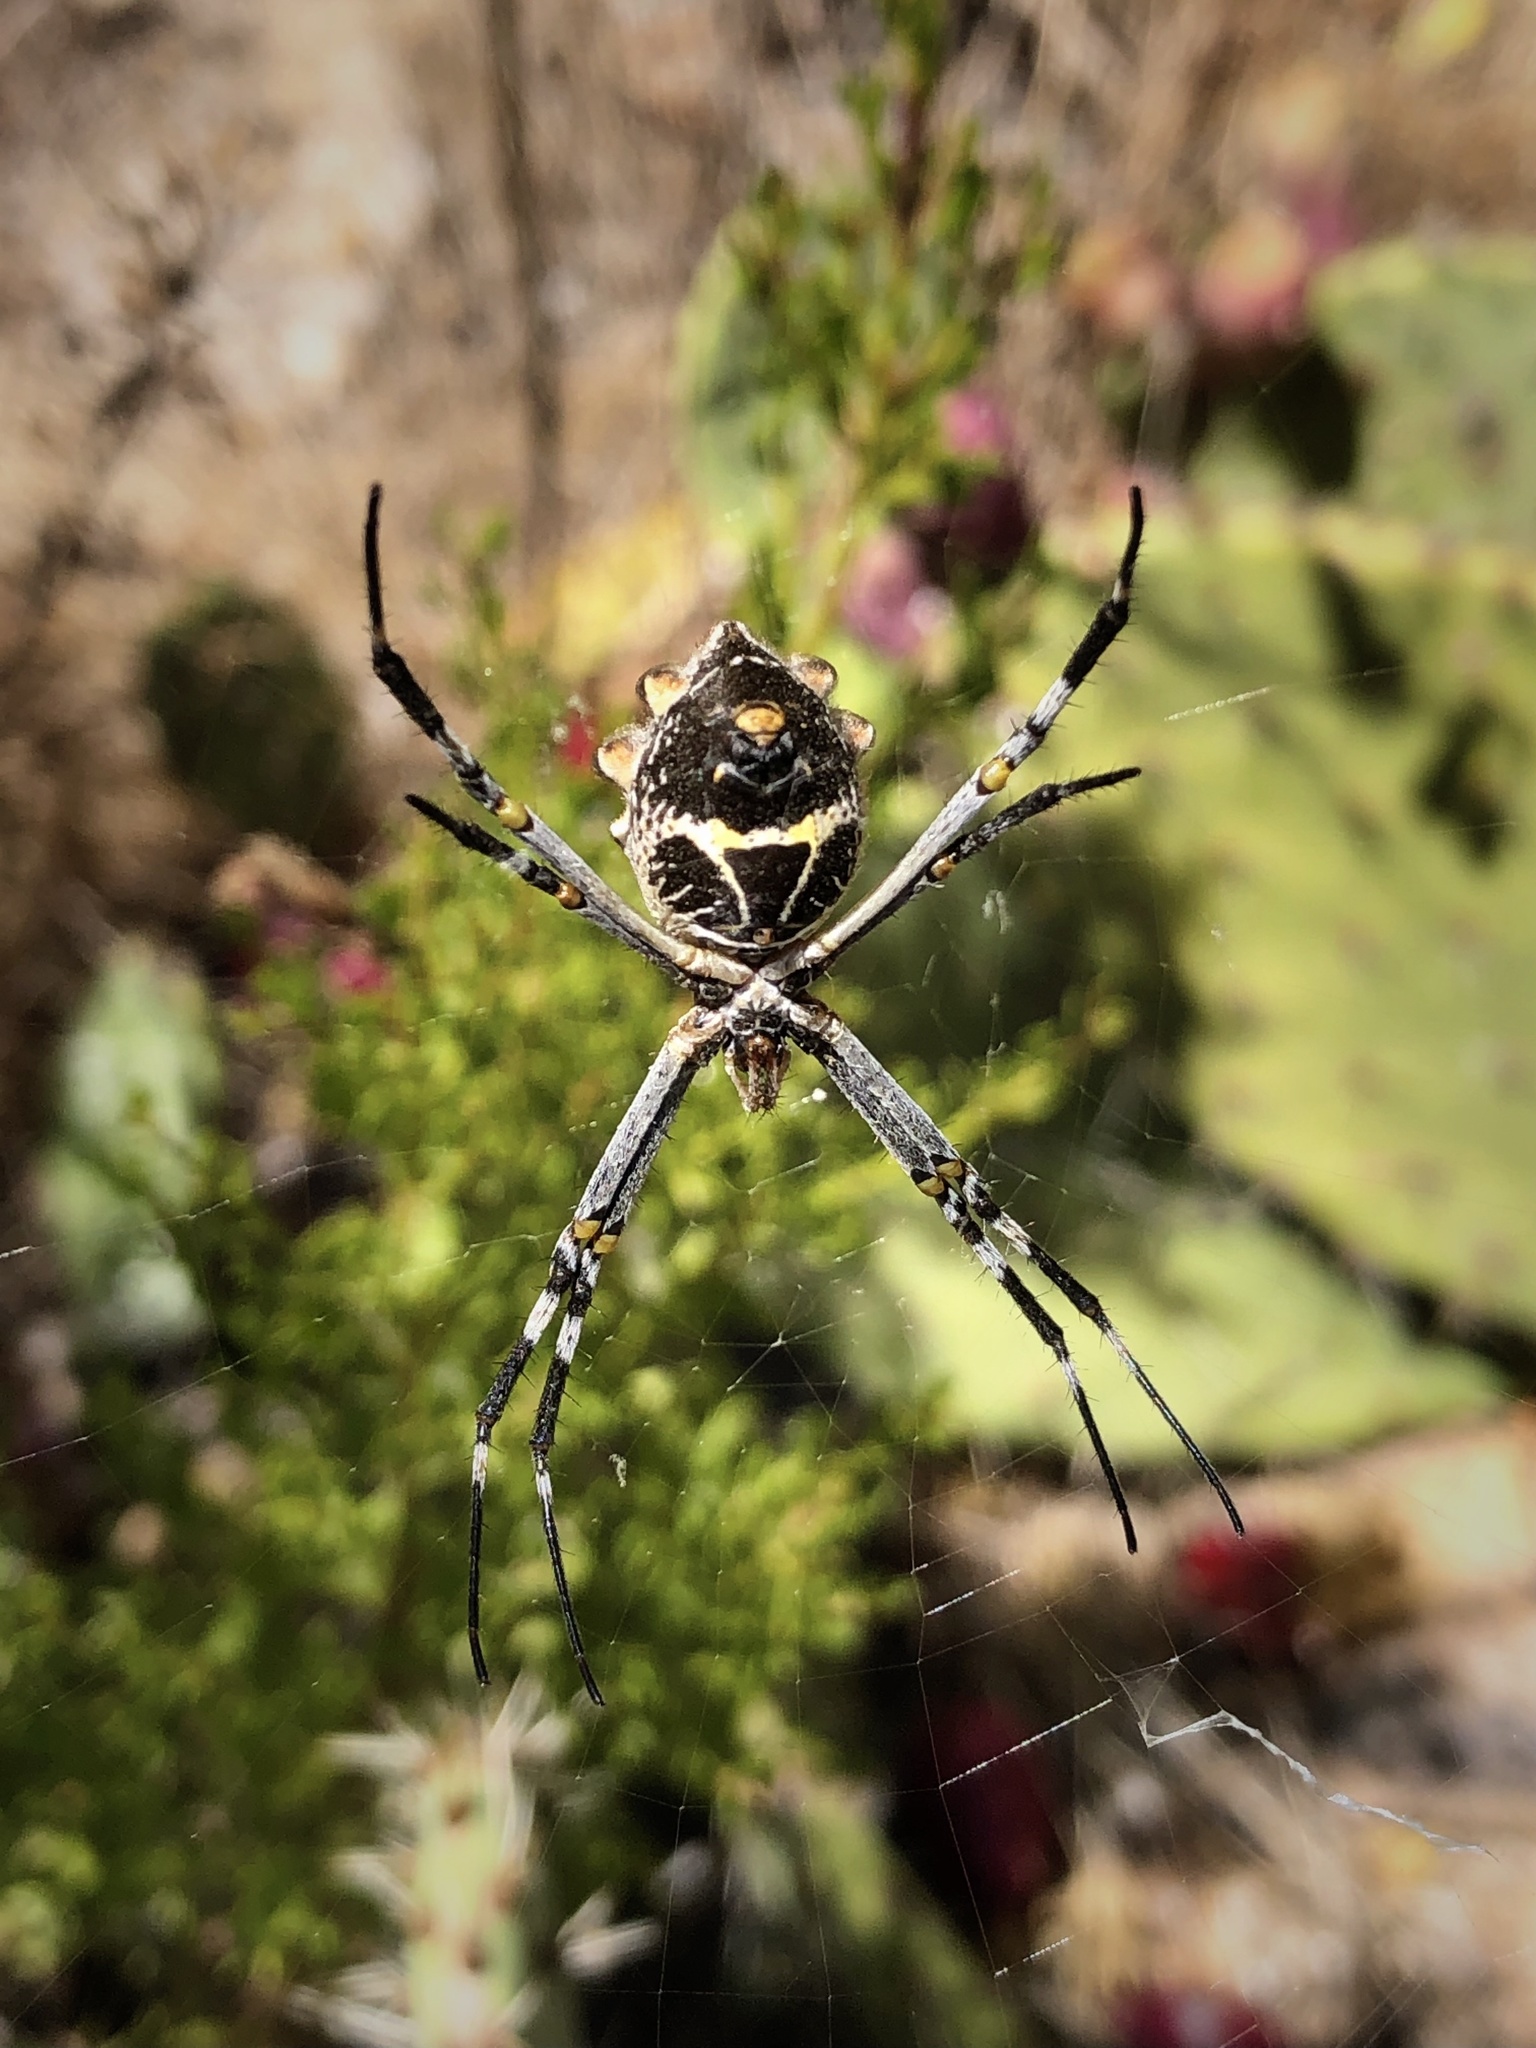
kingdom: Animalia
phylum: Arthropoda
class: Arachnida
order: Araneae
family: Araneidae
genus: Argiope
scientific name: Argiope argentata
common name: Orb weavers
